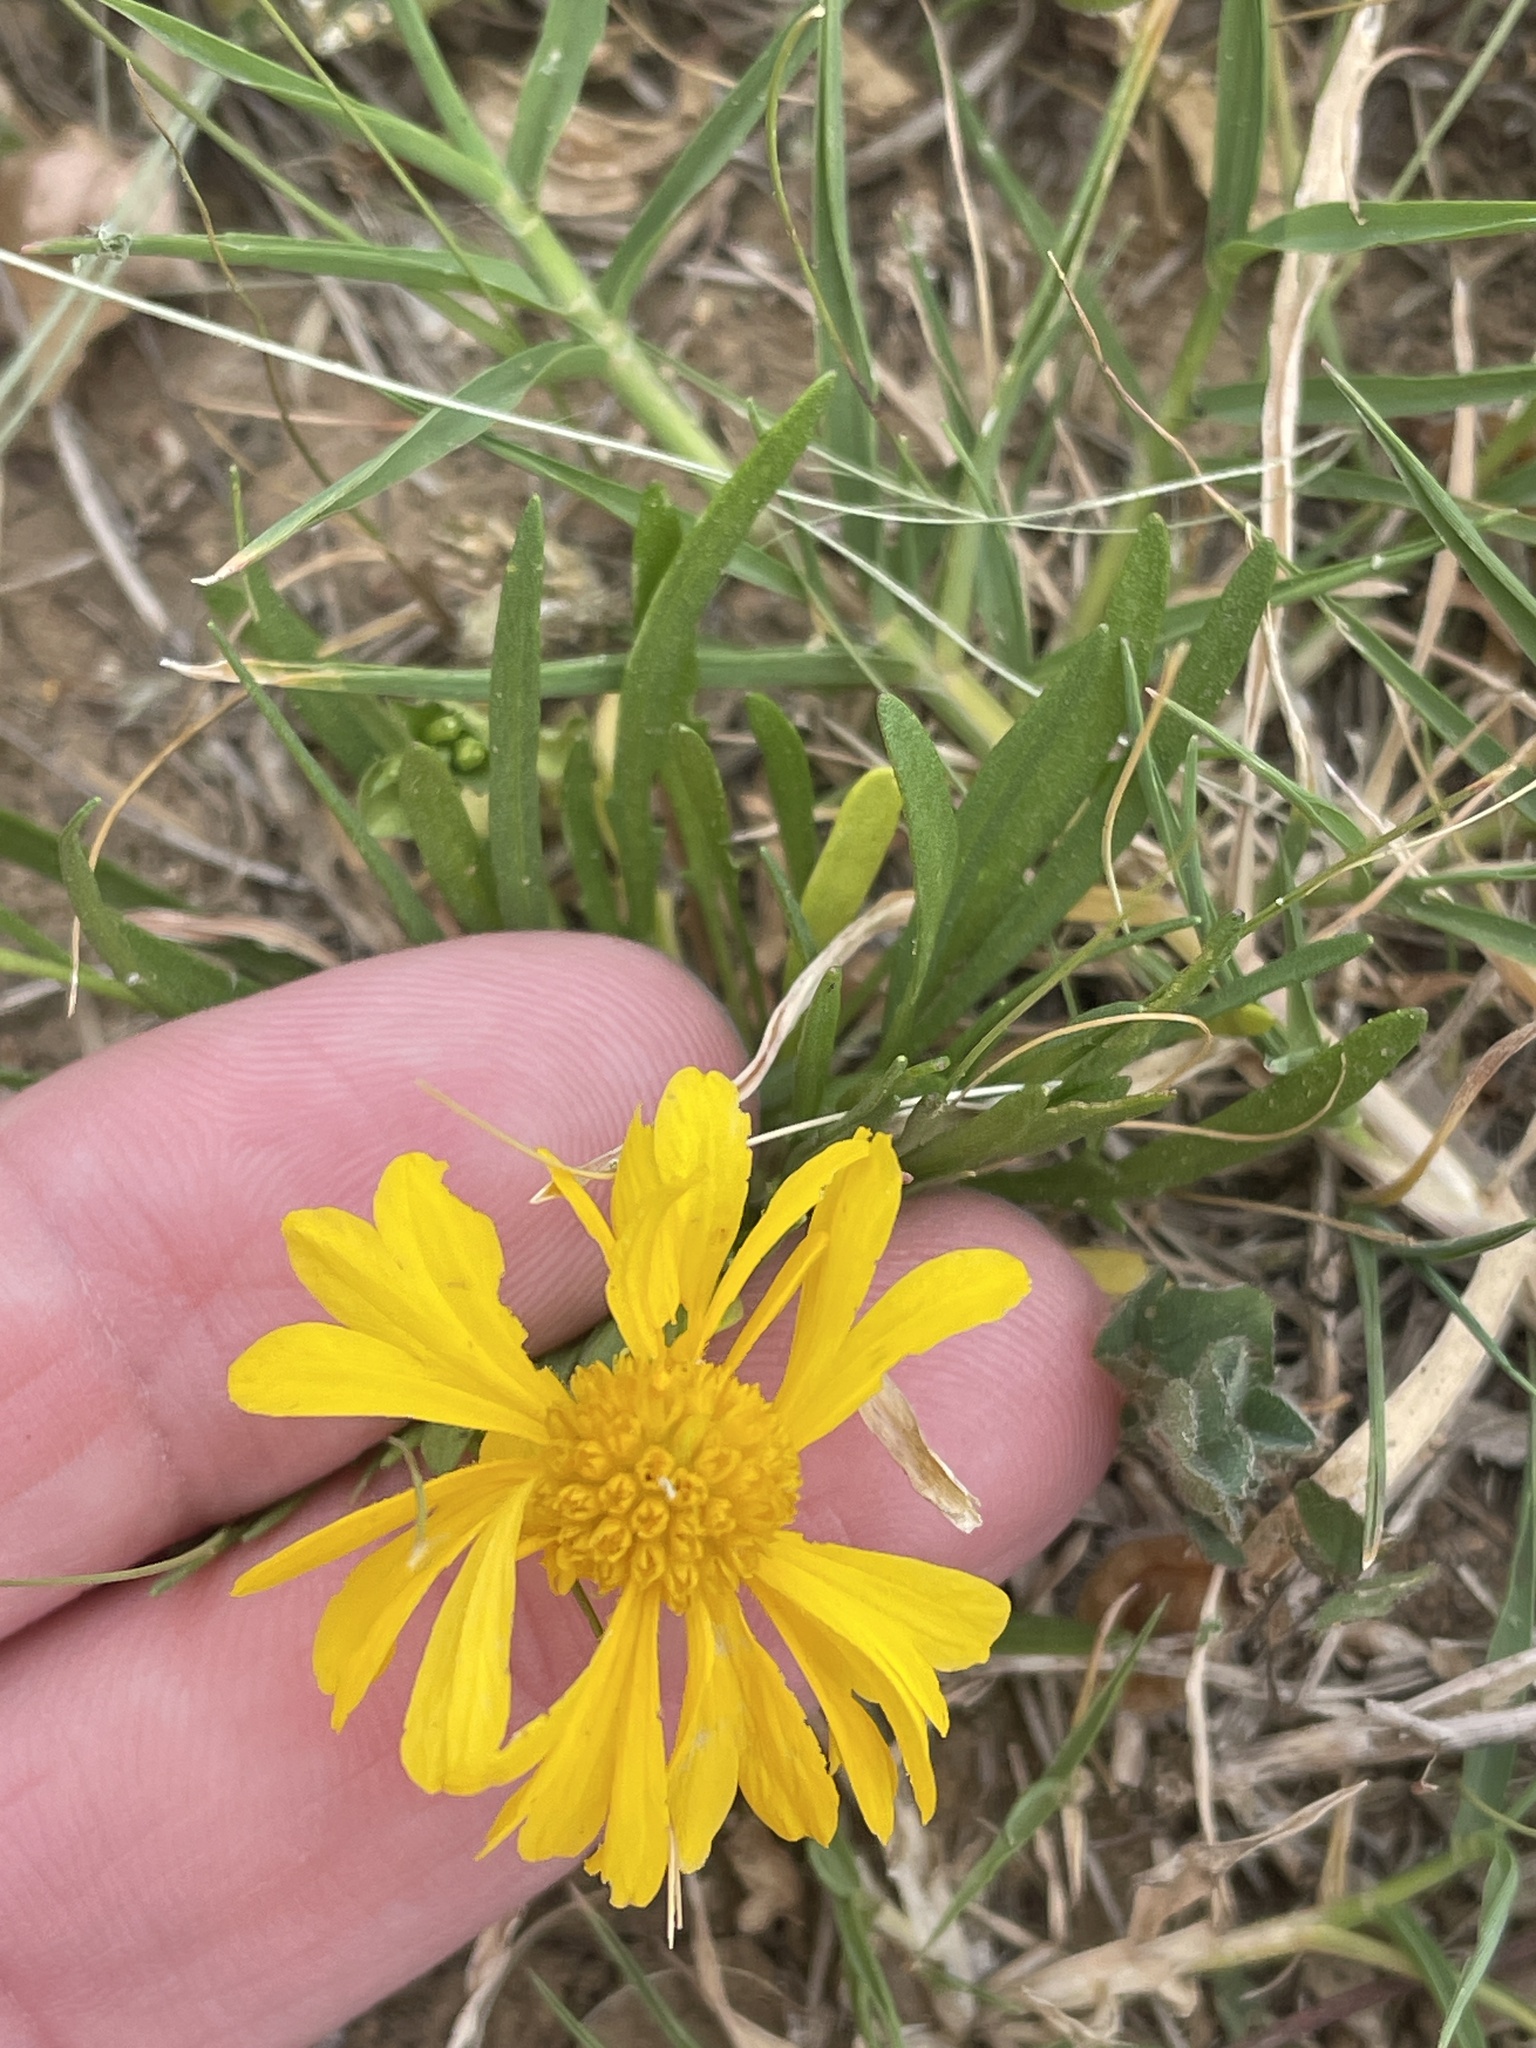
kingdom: Plantae
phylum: Tracheophyta
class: Magnoliopsida
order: Asterales
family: Asteraceae
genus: Helenium
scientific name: Helenium amarum
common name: Bitter sneezeweed
